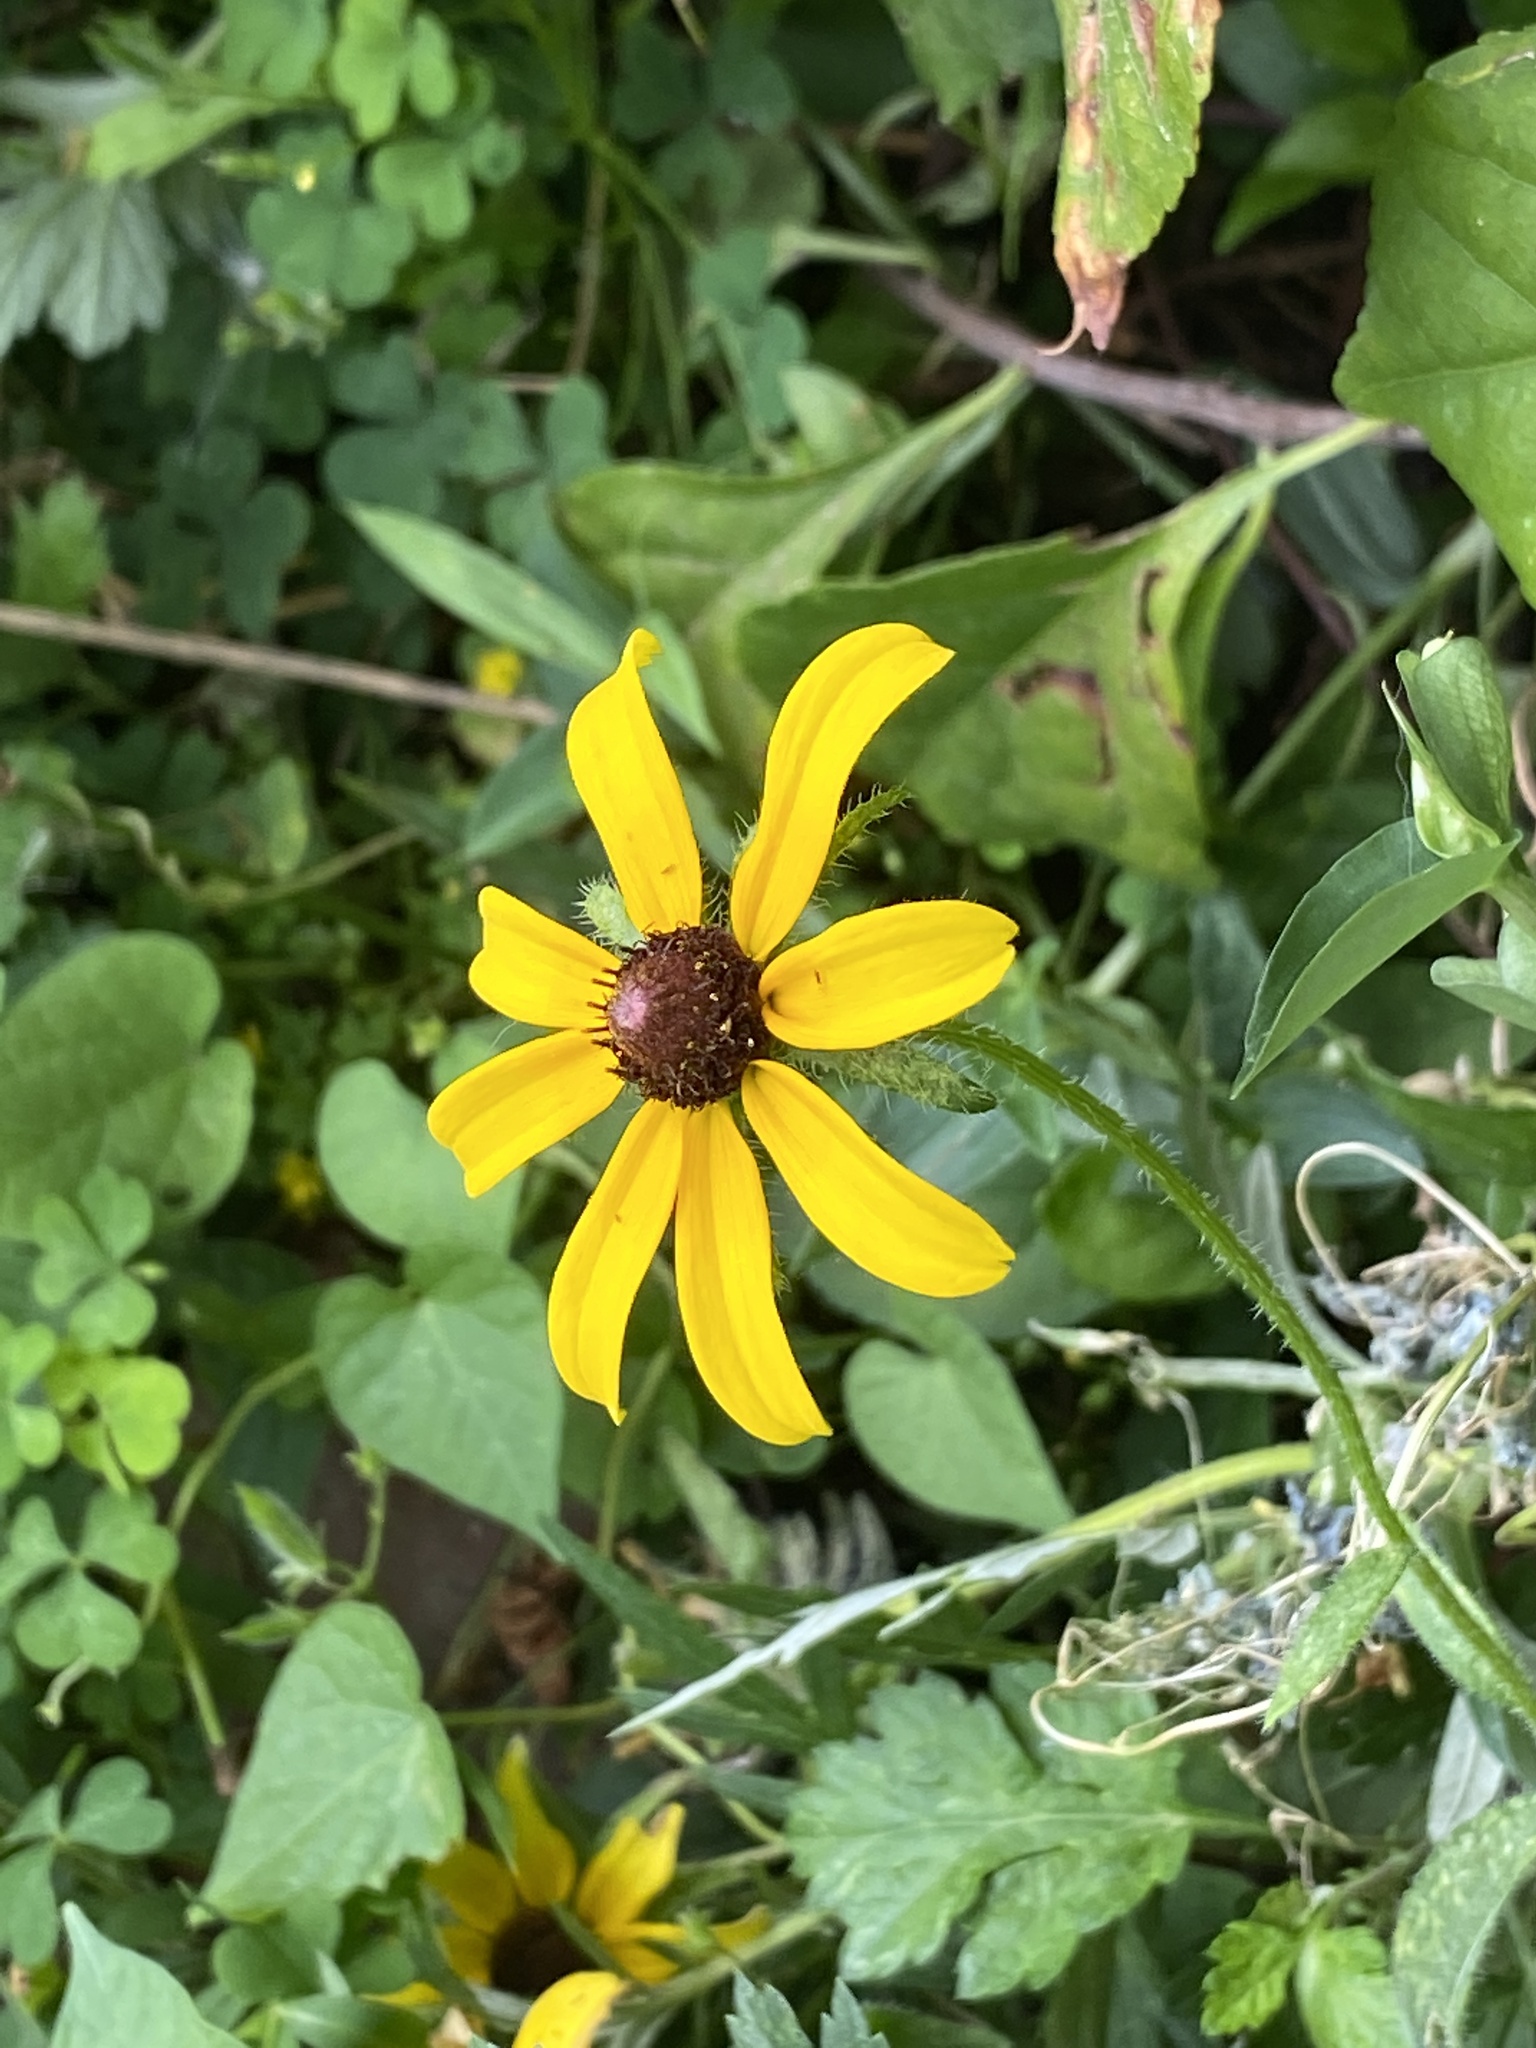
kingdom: Plantae
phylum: Tracheophyta
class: Magnoliopsida
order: Asterales
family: Asteraceae
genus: Rudbeckia
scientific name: Rudbeckia hirta
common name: Black-eyed-susan
